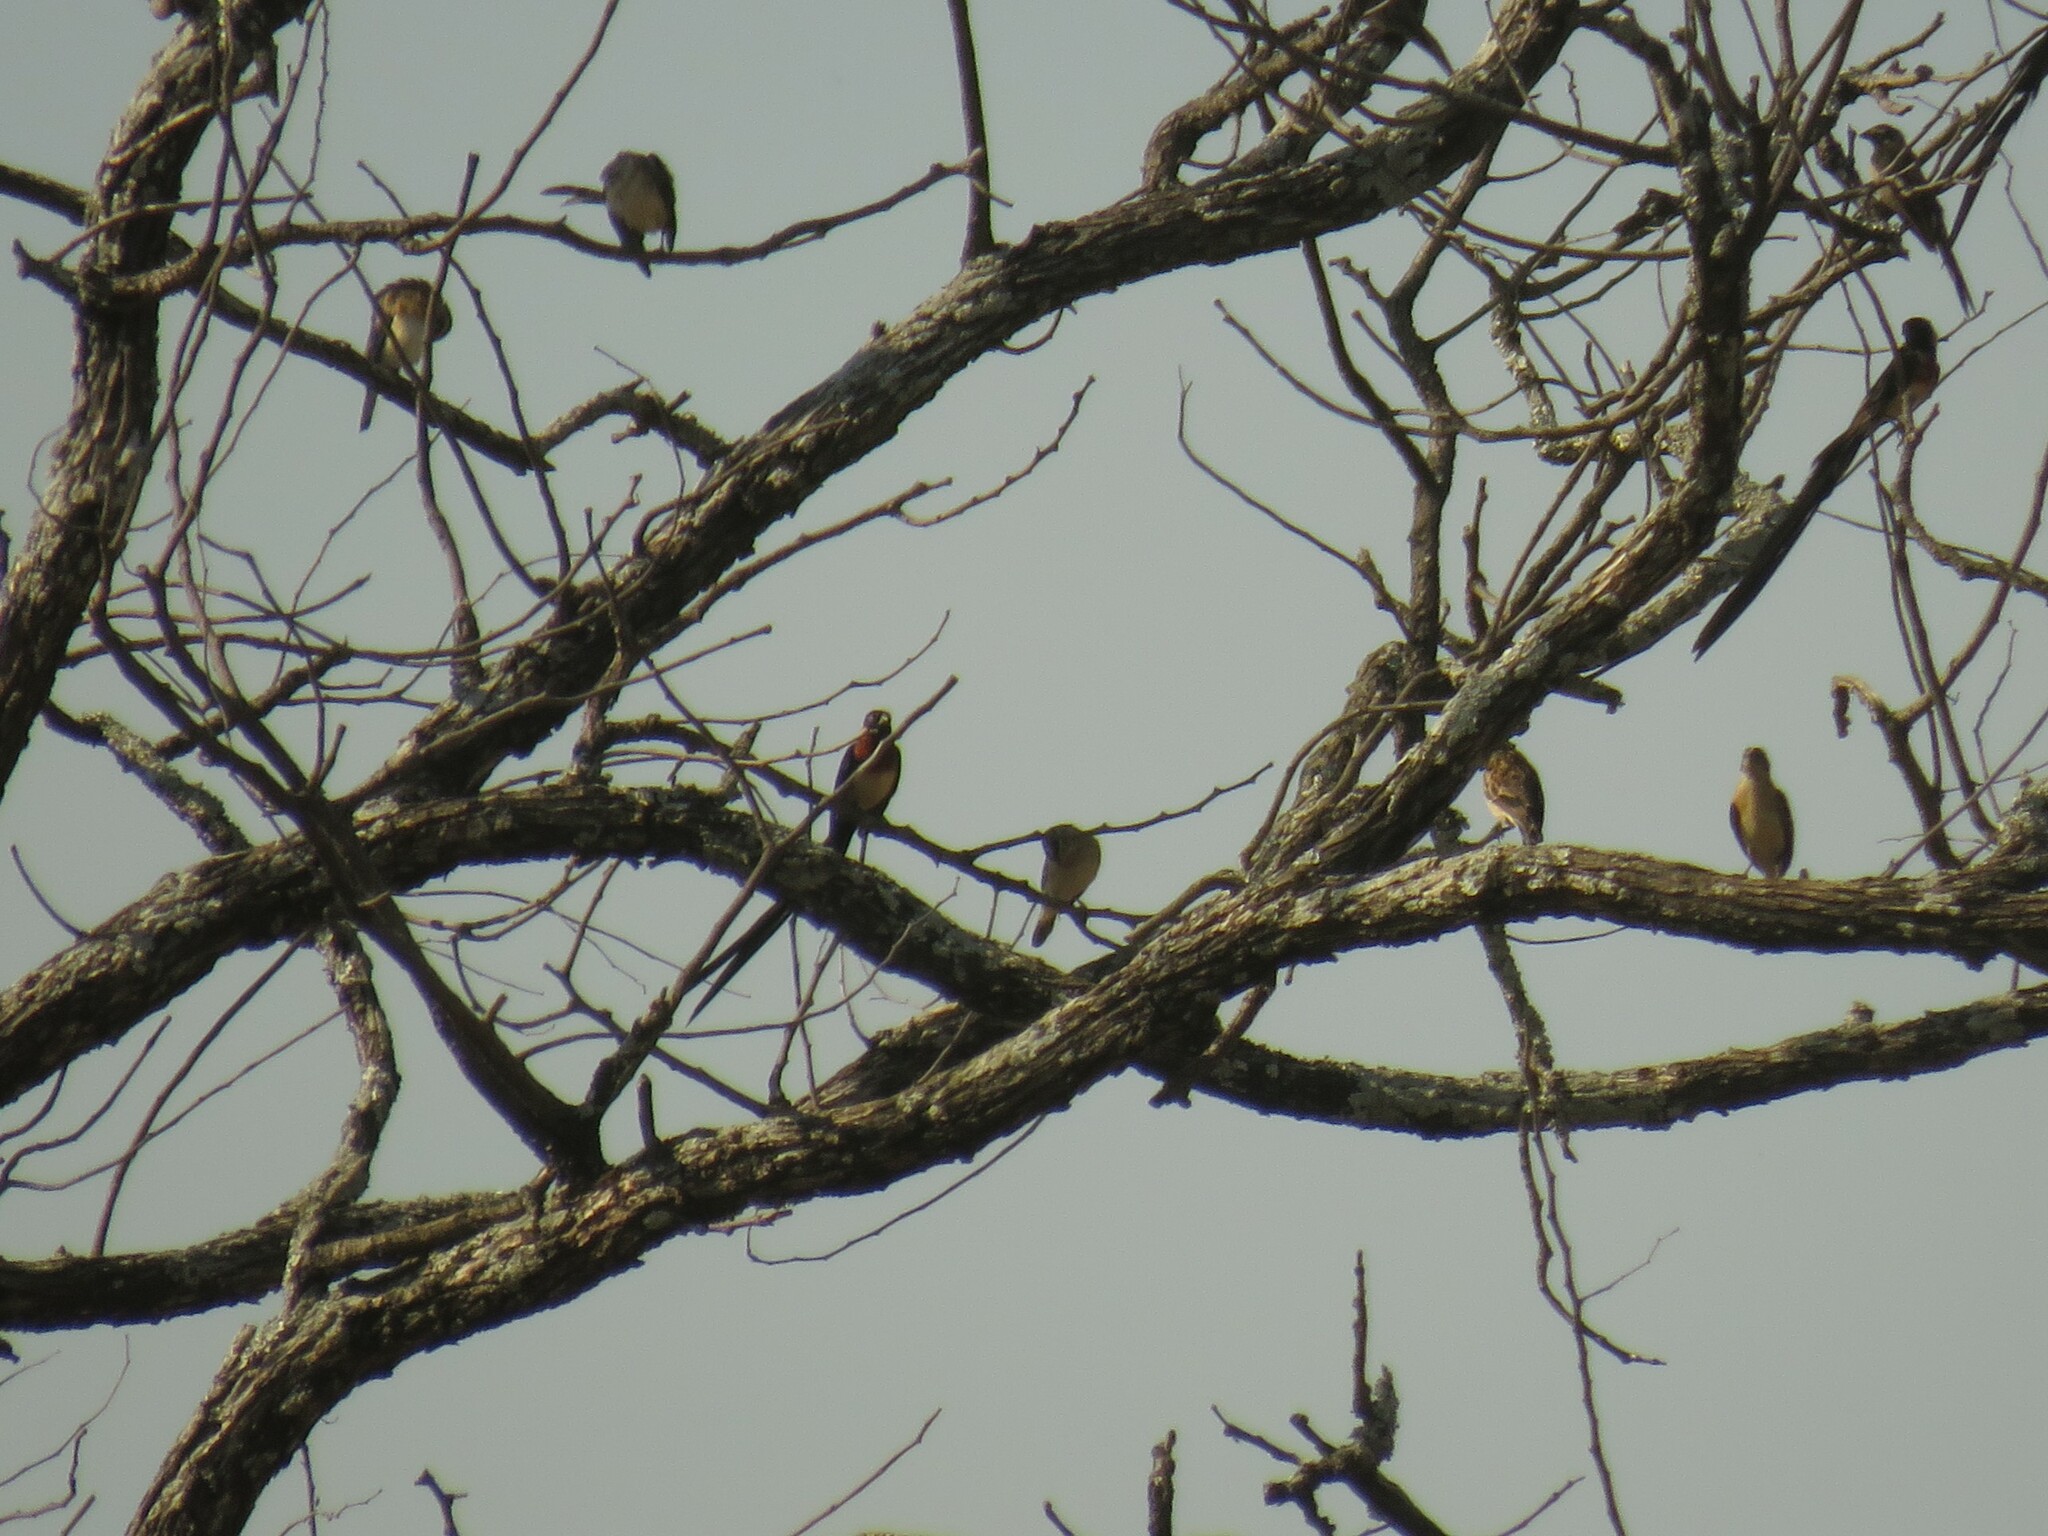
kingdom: Animalia
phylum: Chordata
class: Aves
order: Passeriformes
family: Viduidae
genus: Vidua
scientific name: Vidua paradisaea
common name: Long-tailed paradise whydah
